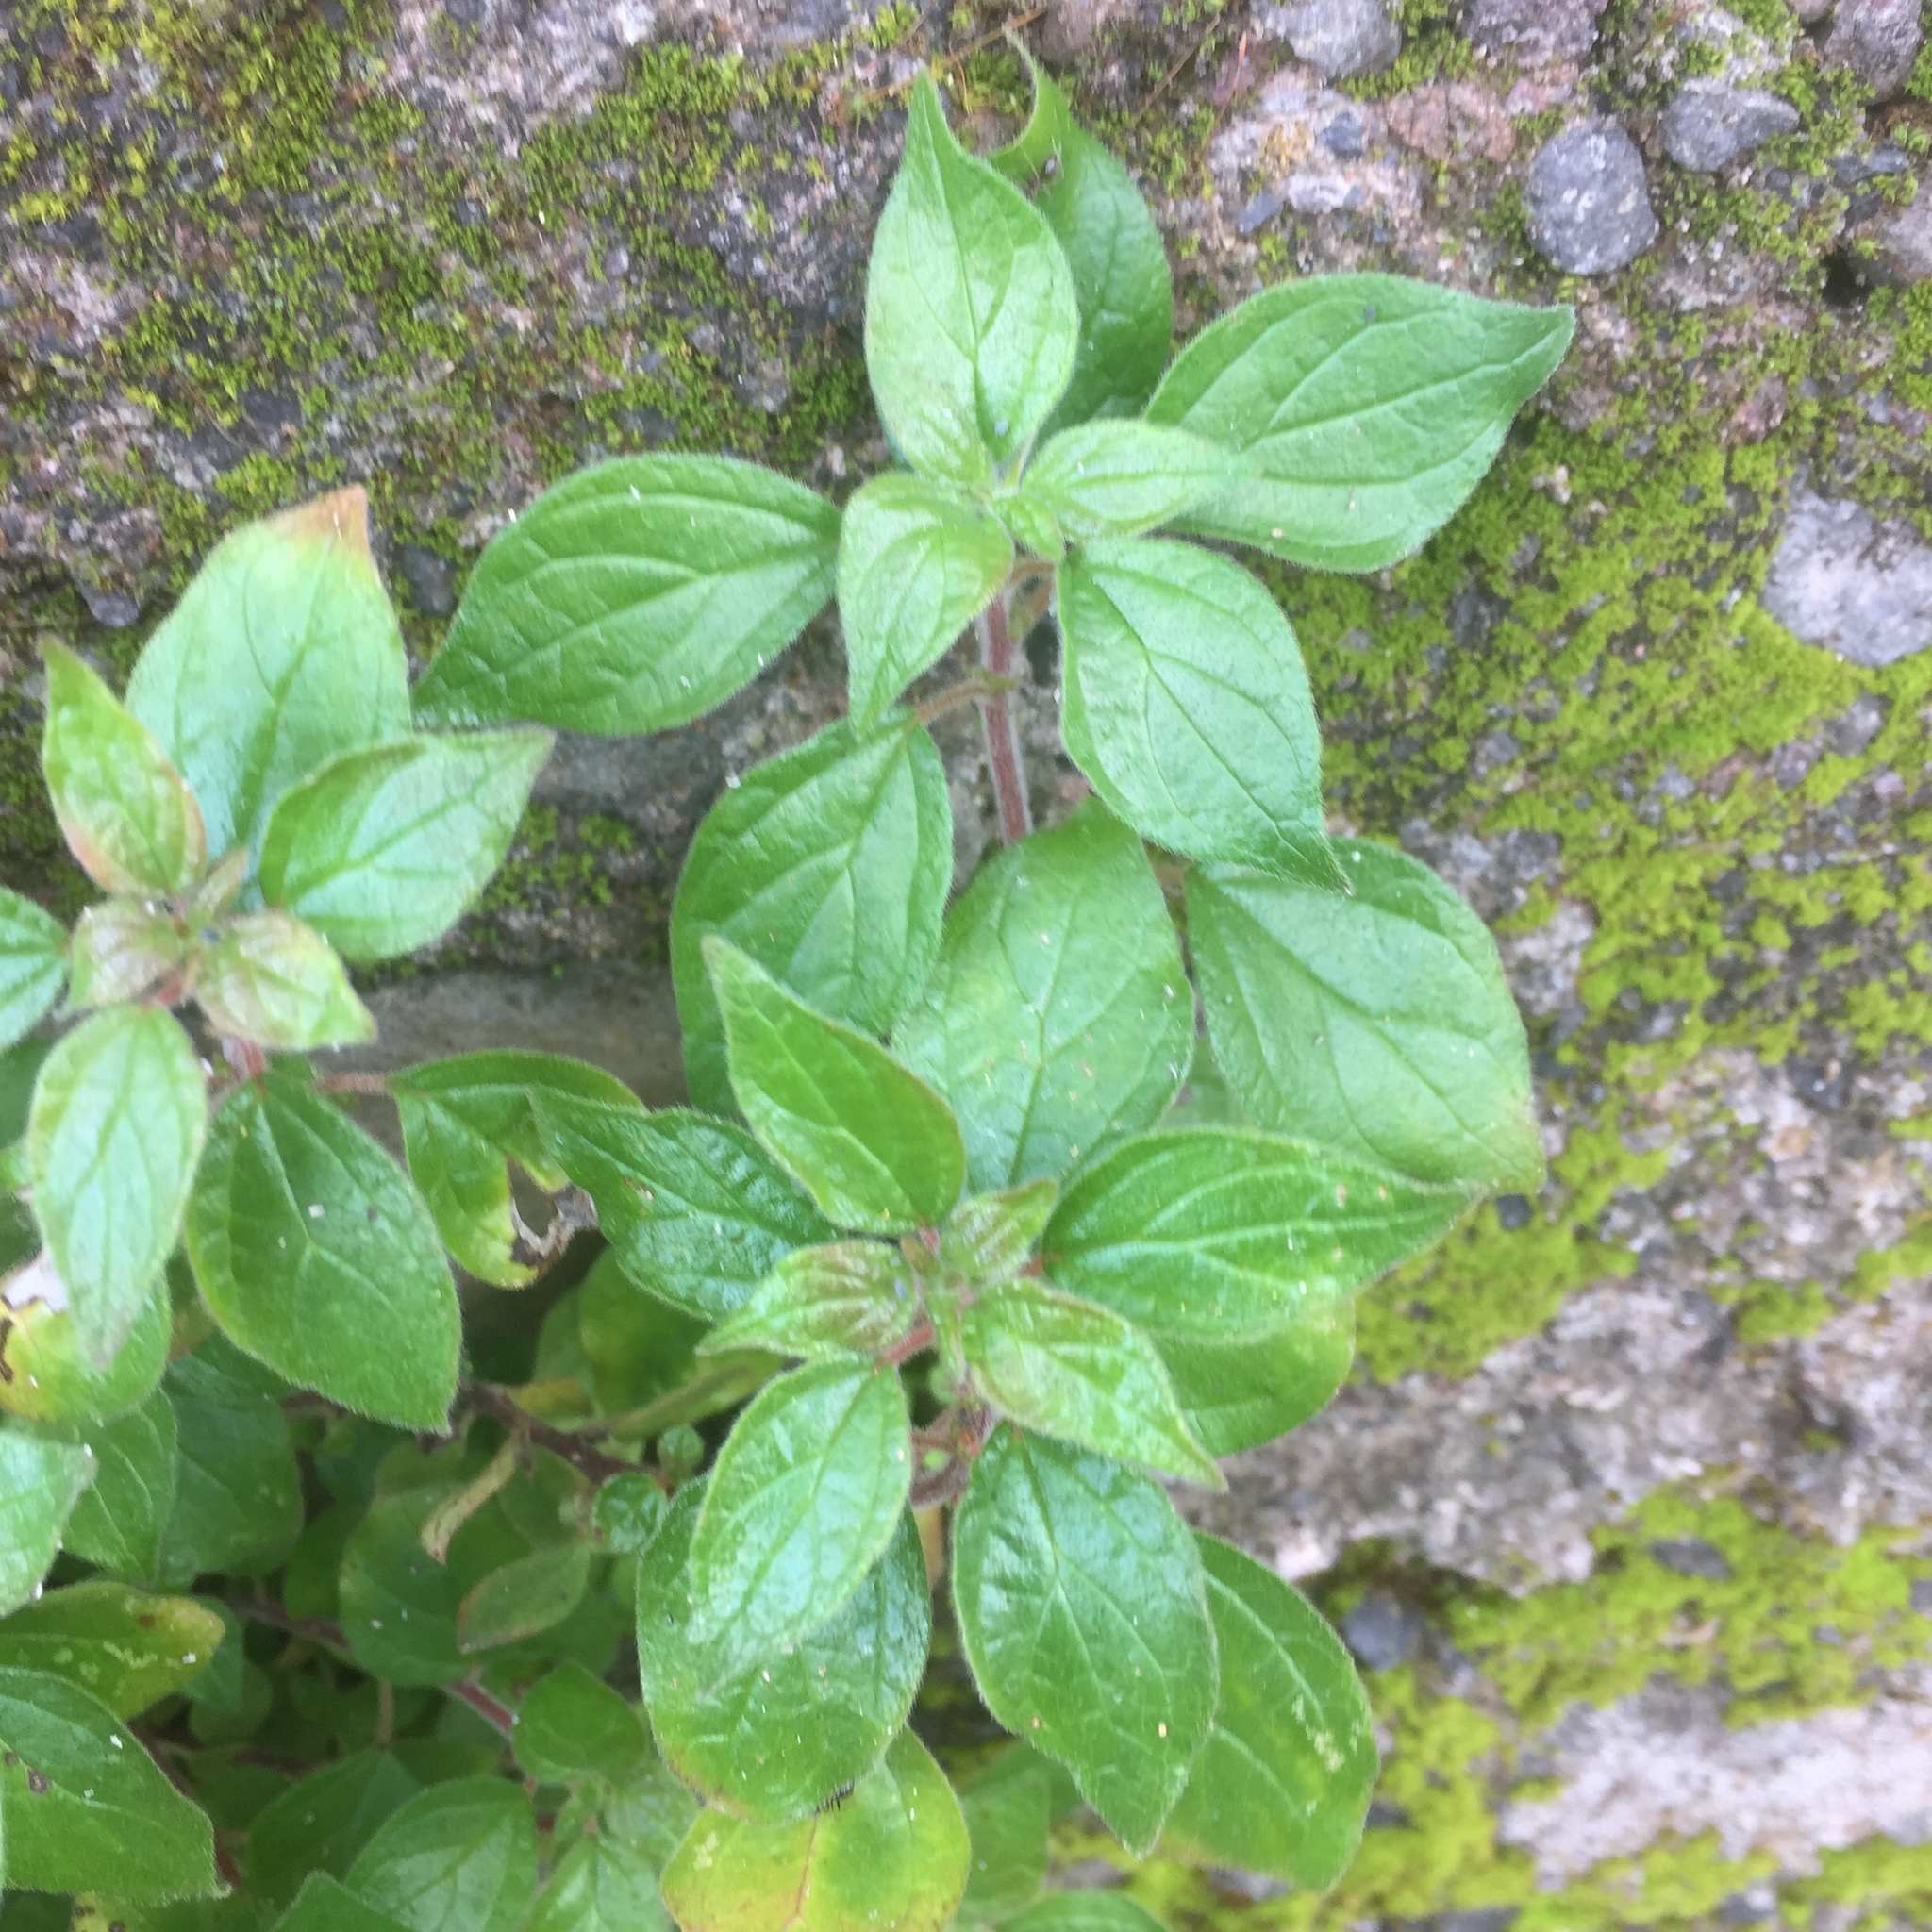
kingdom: Plantae
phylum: Tracheophyta
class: Magnoliopsida
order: Rosales
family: Urticaceae
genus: Parietaria
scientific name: Parietaria judaica
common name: Pellitory-of-the-wall
